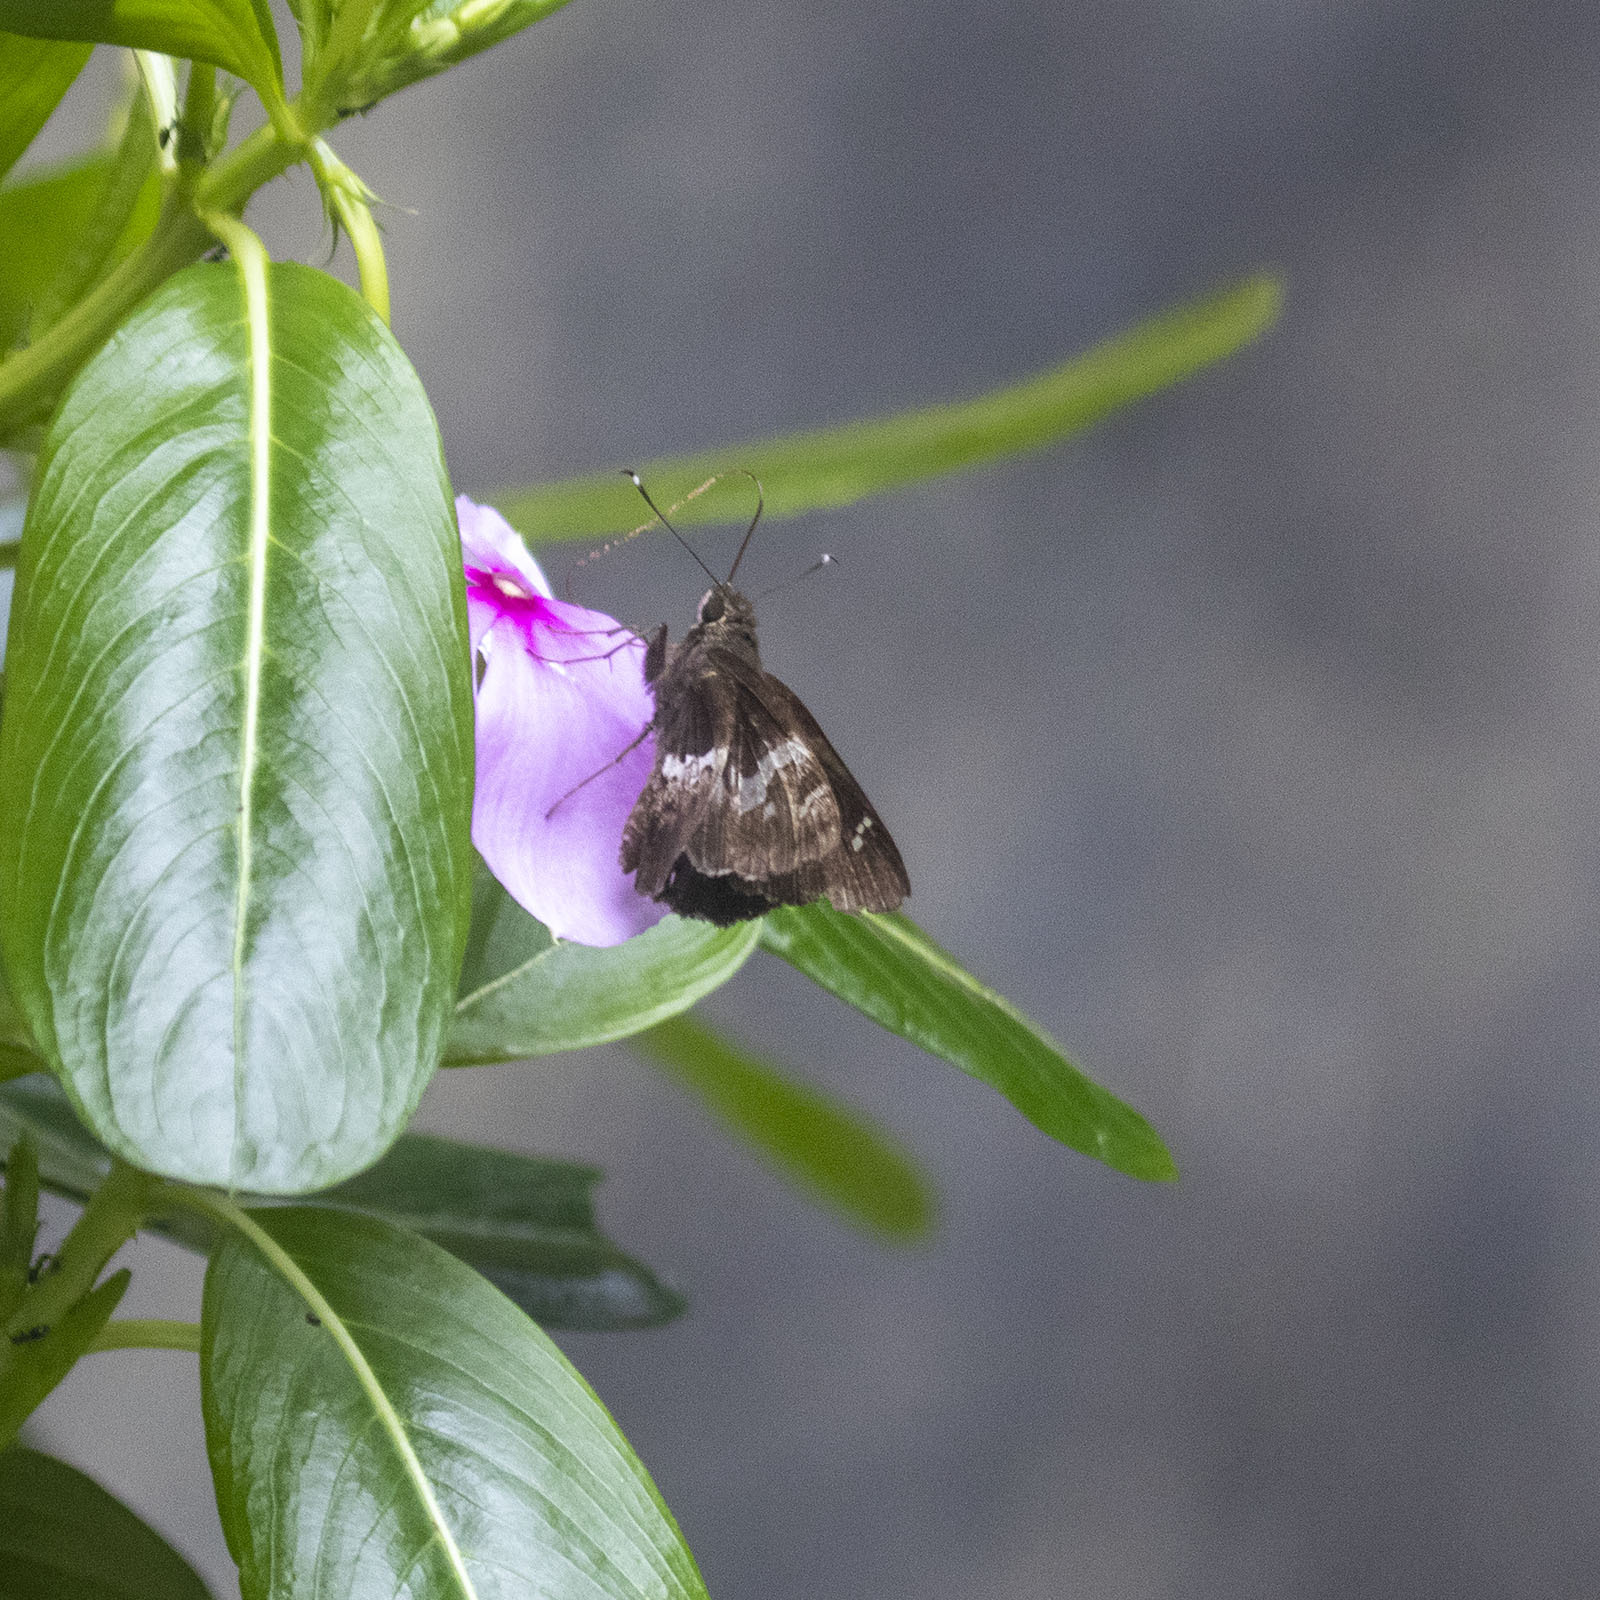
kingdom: Animalia
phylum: Arthropoda
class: Insecta
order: Lepidoptera
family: Hesperiidae
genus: Hyarotis
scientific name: Hyarotis adrastus
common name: Tree flitter
